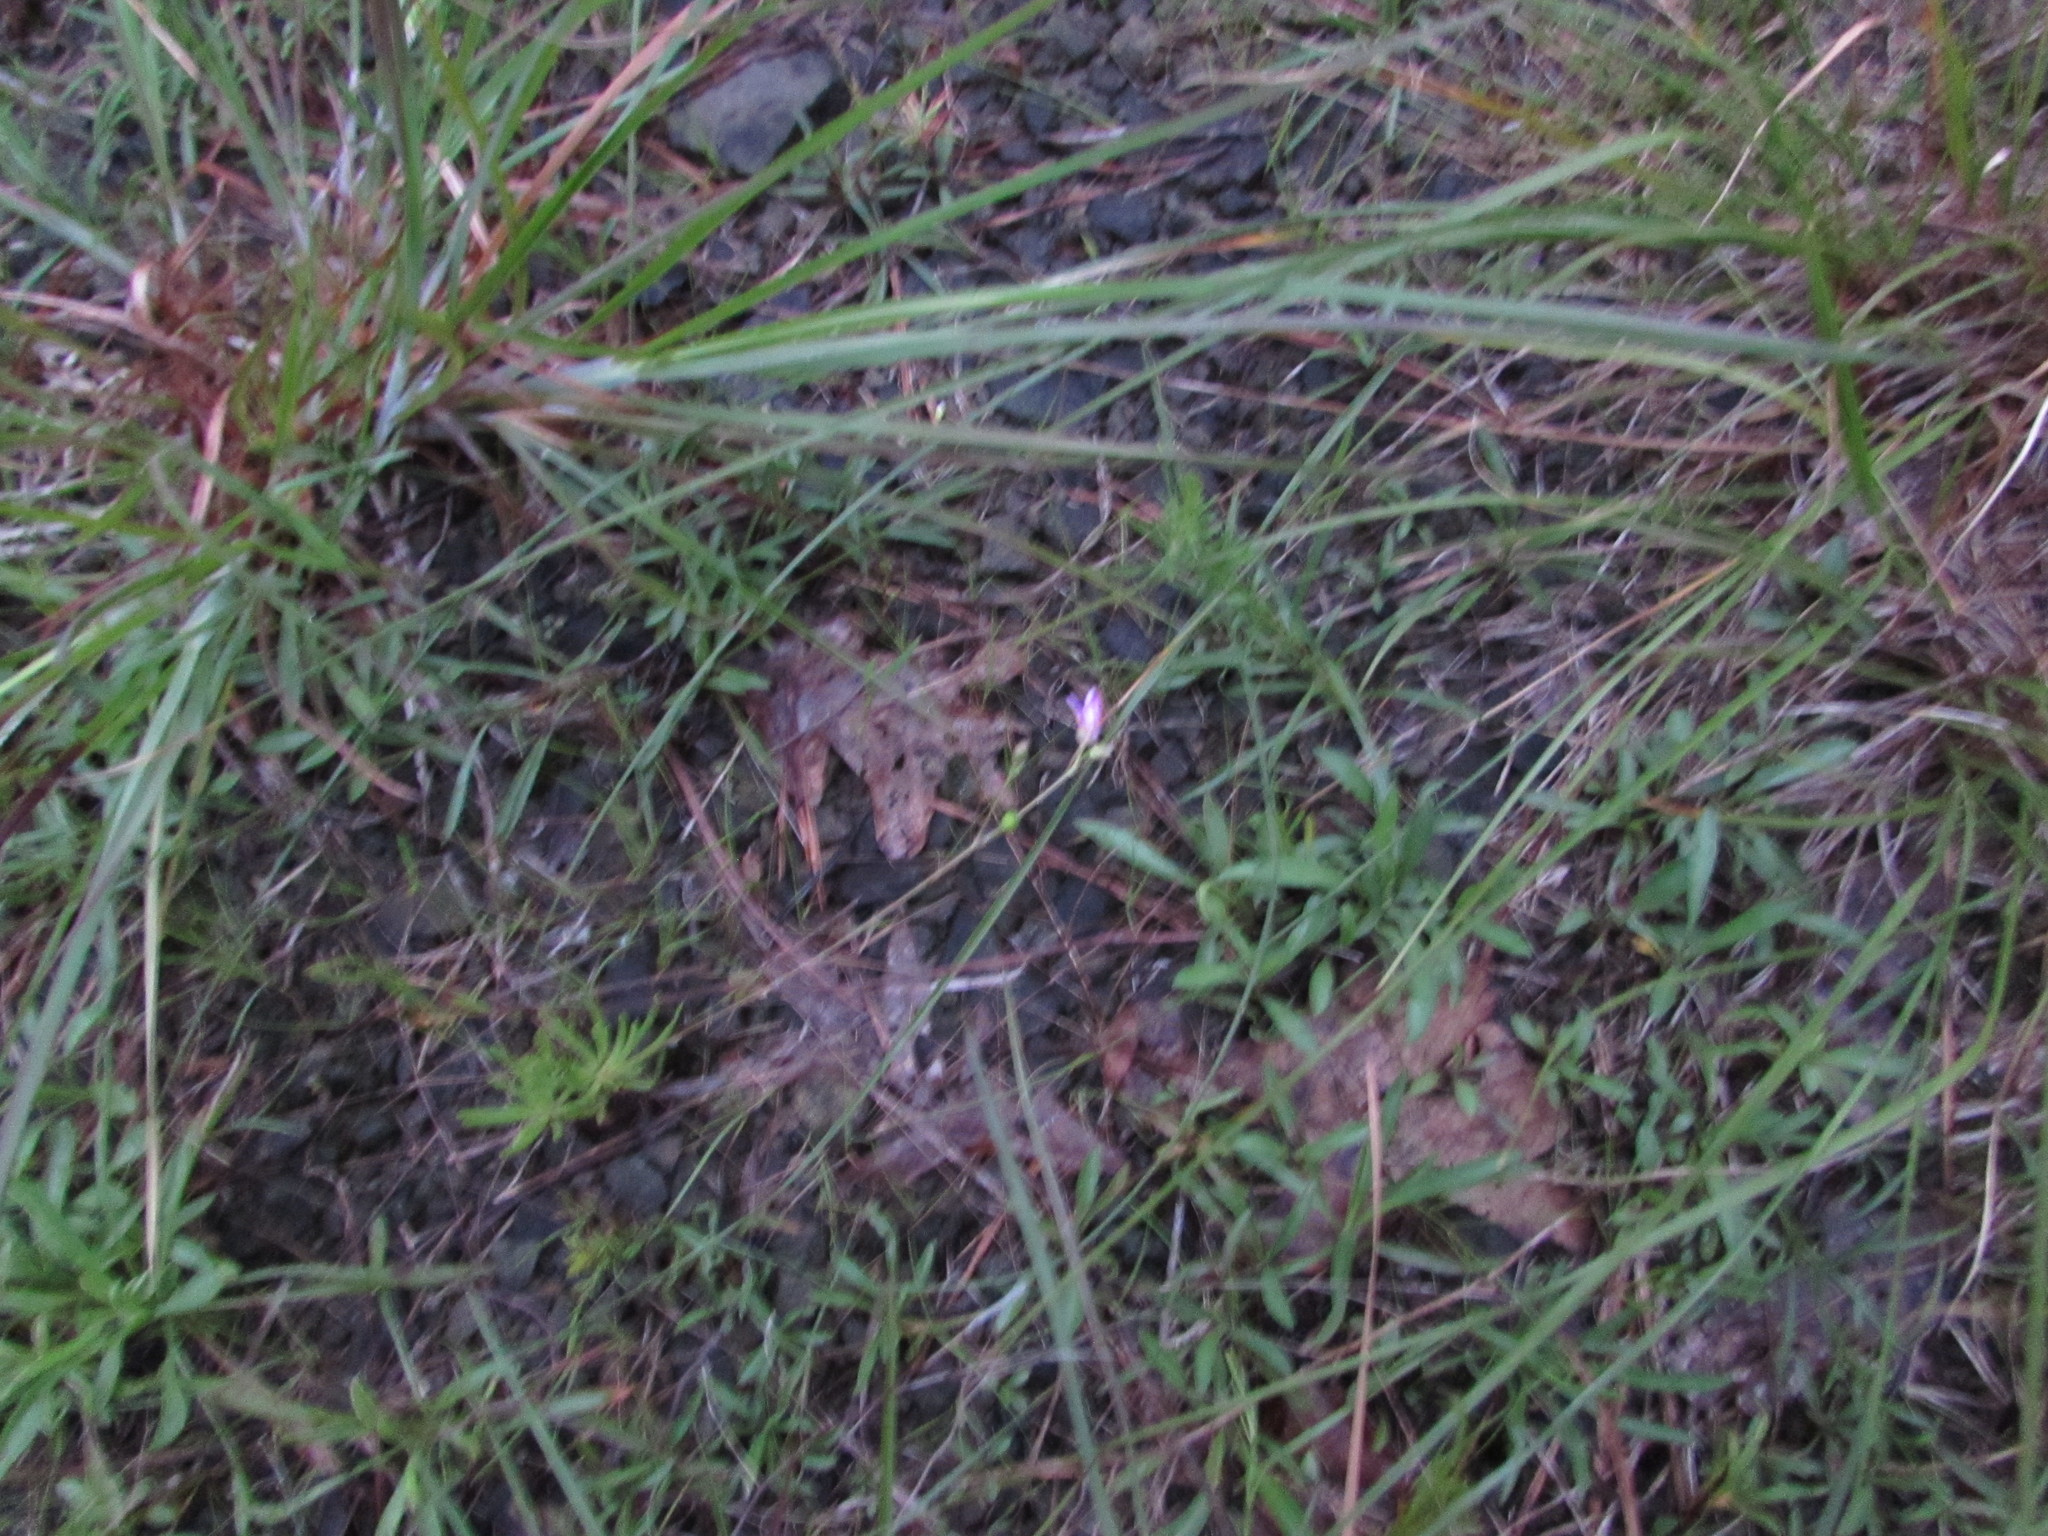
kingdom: Plantae
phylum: Tracheophyta
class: Magnoliopsida
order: Caryophyllales
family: Montiaceae
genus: Phemeranthus
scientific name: Phemeranthus teretifolius
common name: Quill fameflower
